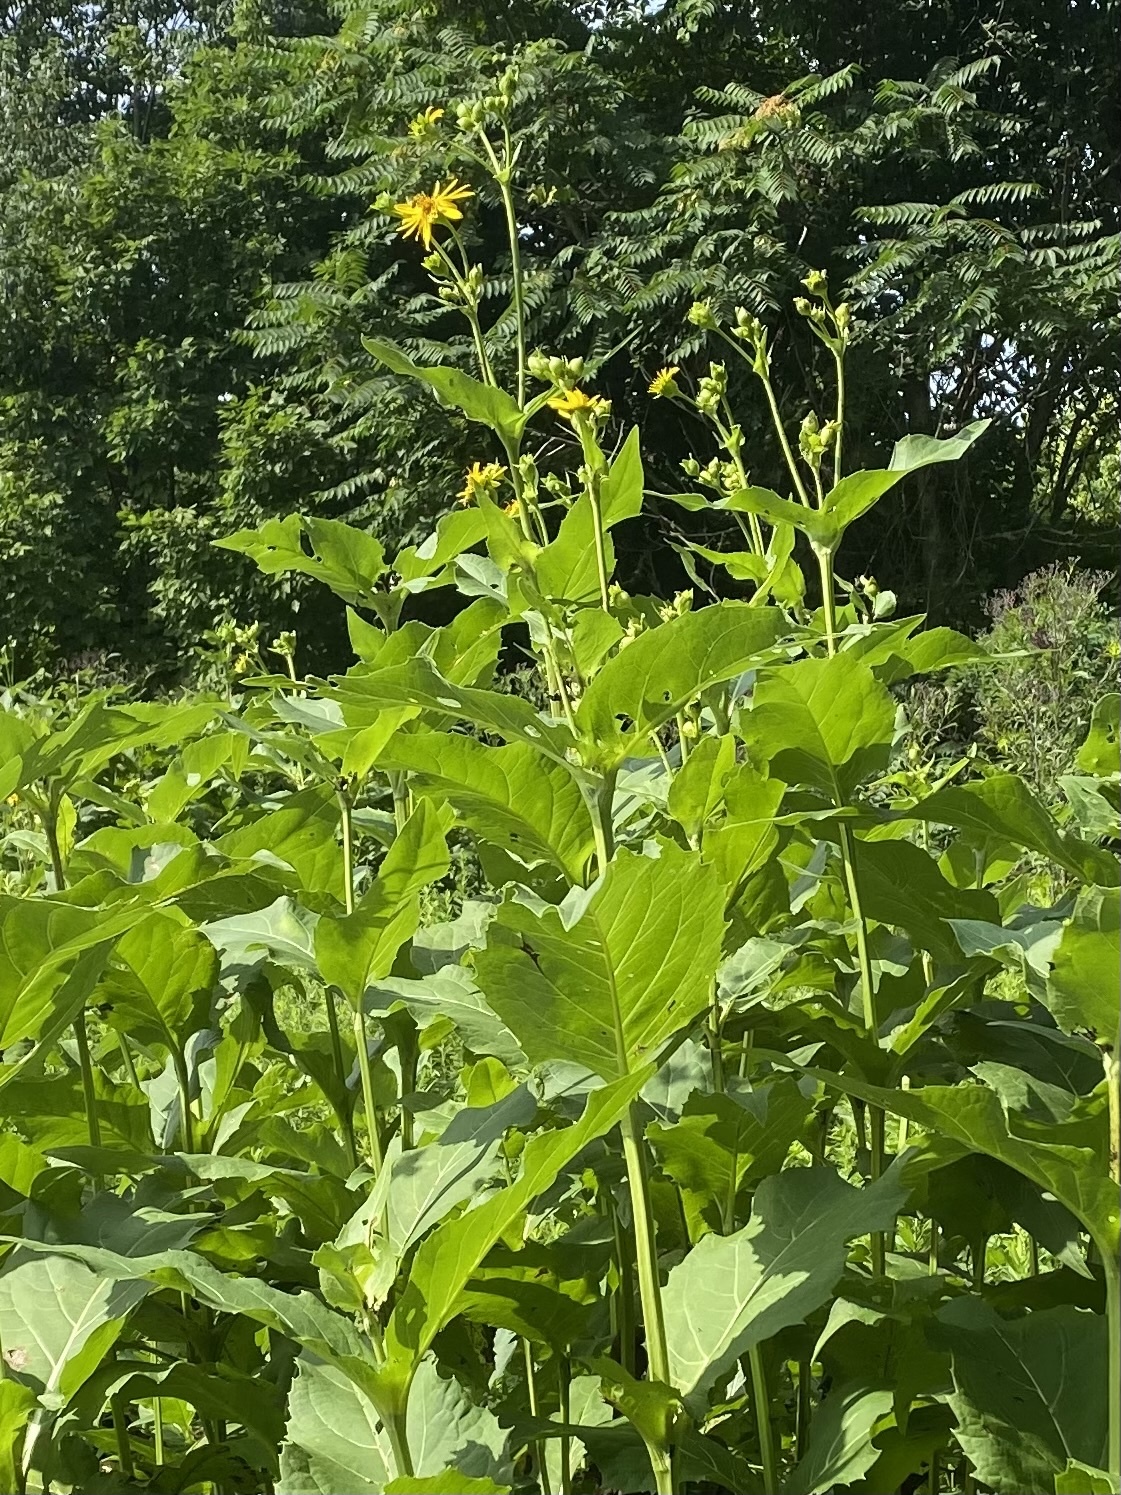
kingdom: Plantae
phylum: Tracheophyta
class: Magnoliopsida
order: Asterales
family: Asteraceae
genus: Silphium
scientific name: Silphium perfoliatum
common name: Cup-plant
